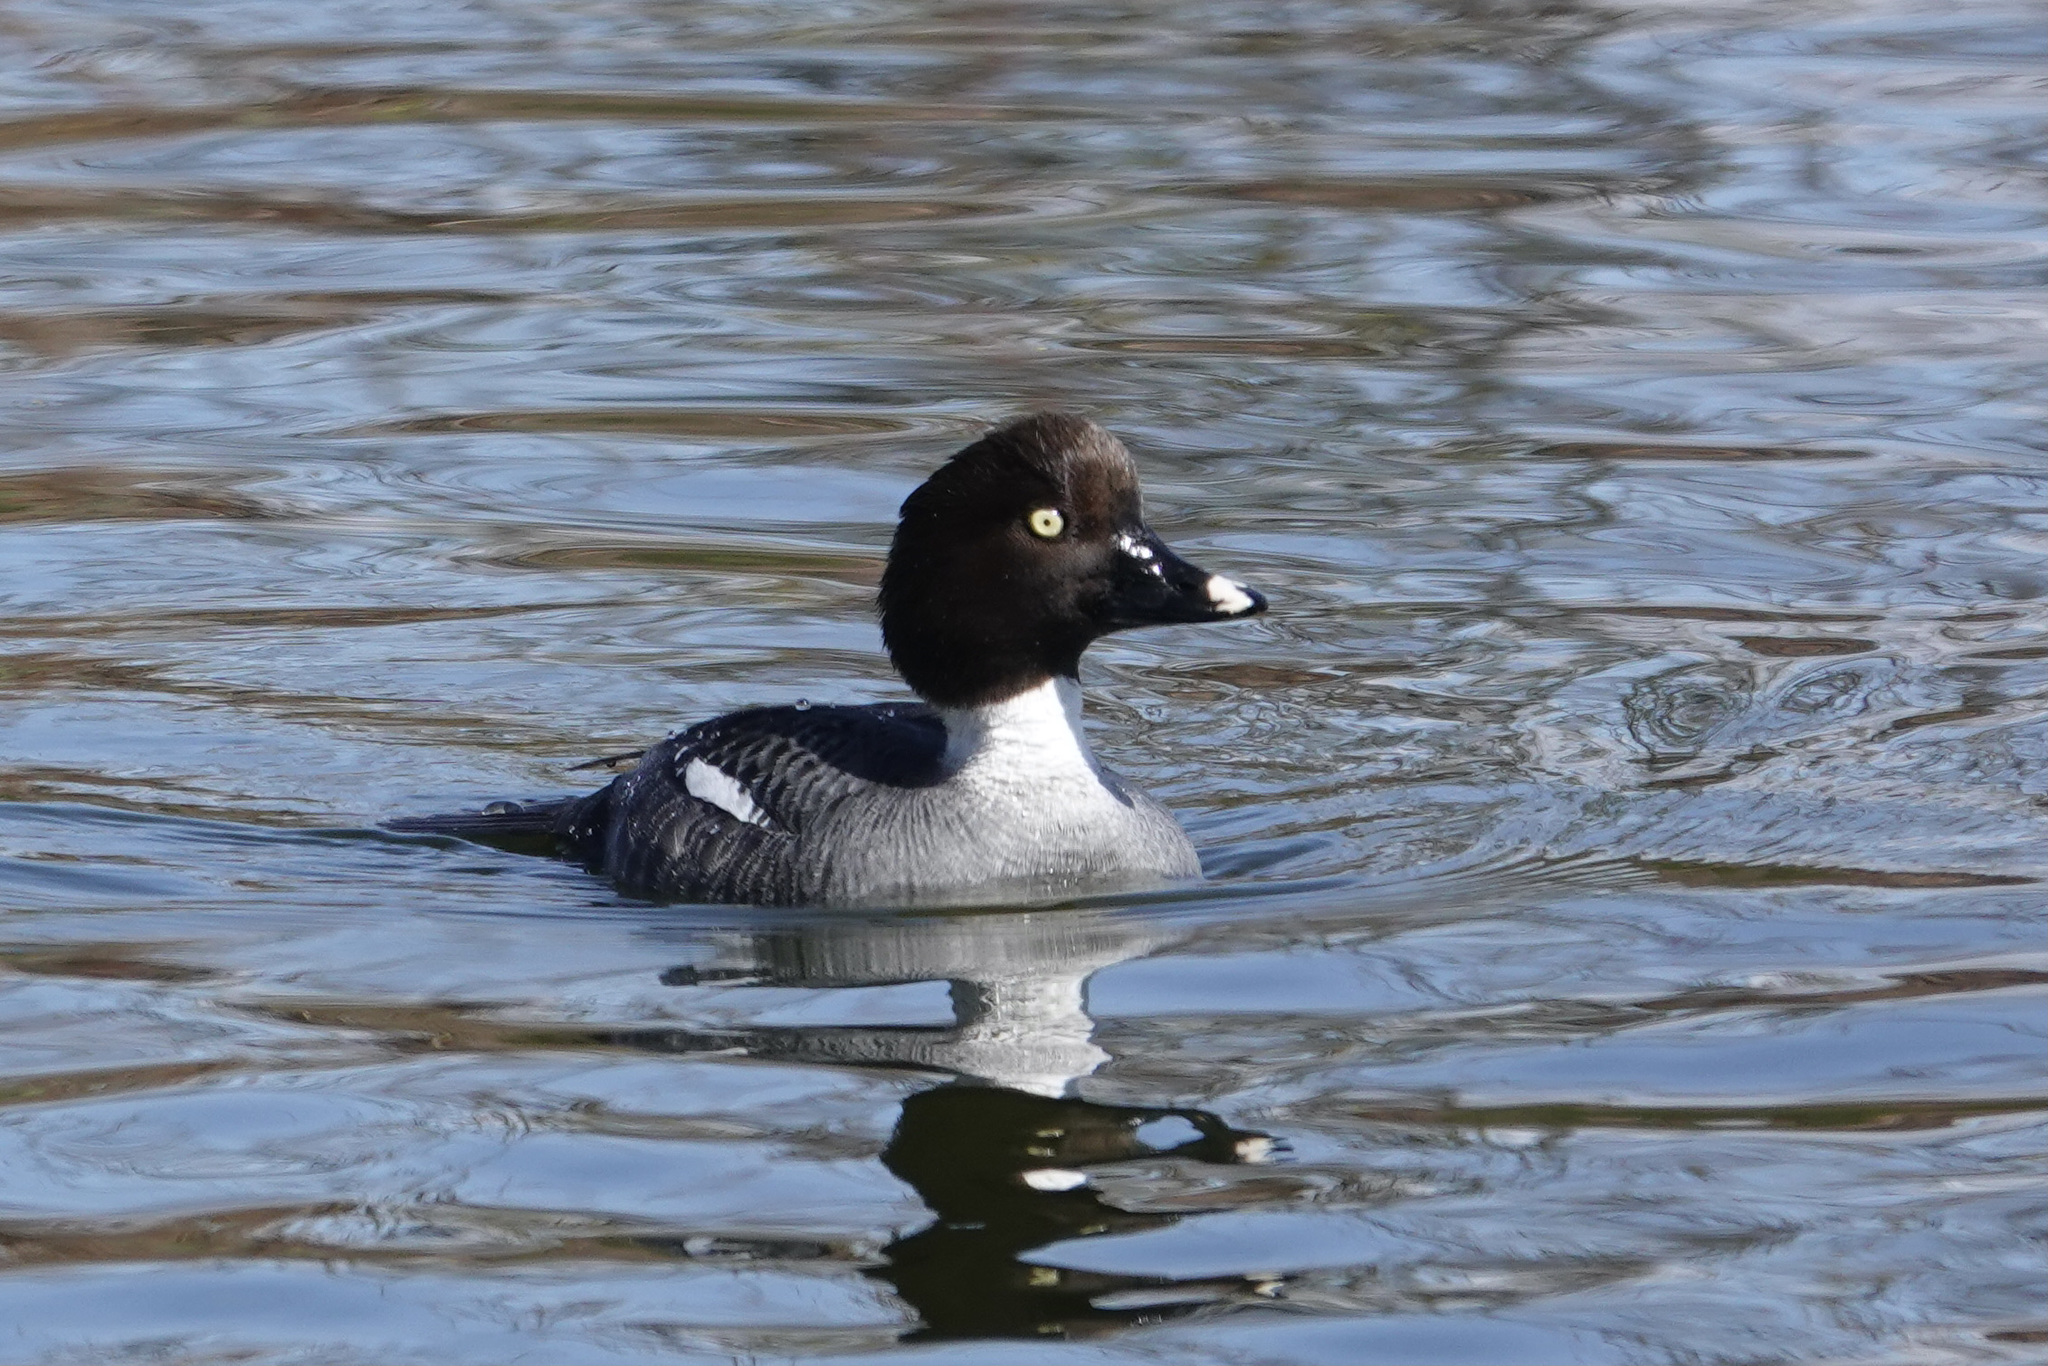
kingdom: Animalia
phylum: Chordata
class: Aves
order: Anseriformes
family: Anatidae
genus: Bucephala
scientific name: Bucephala clangula
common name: Common goldeneye
